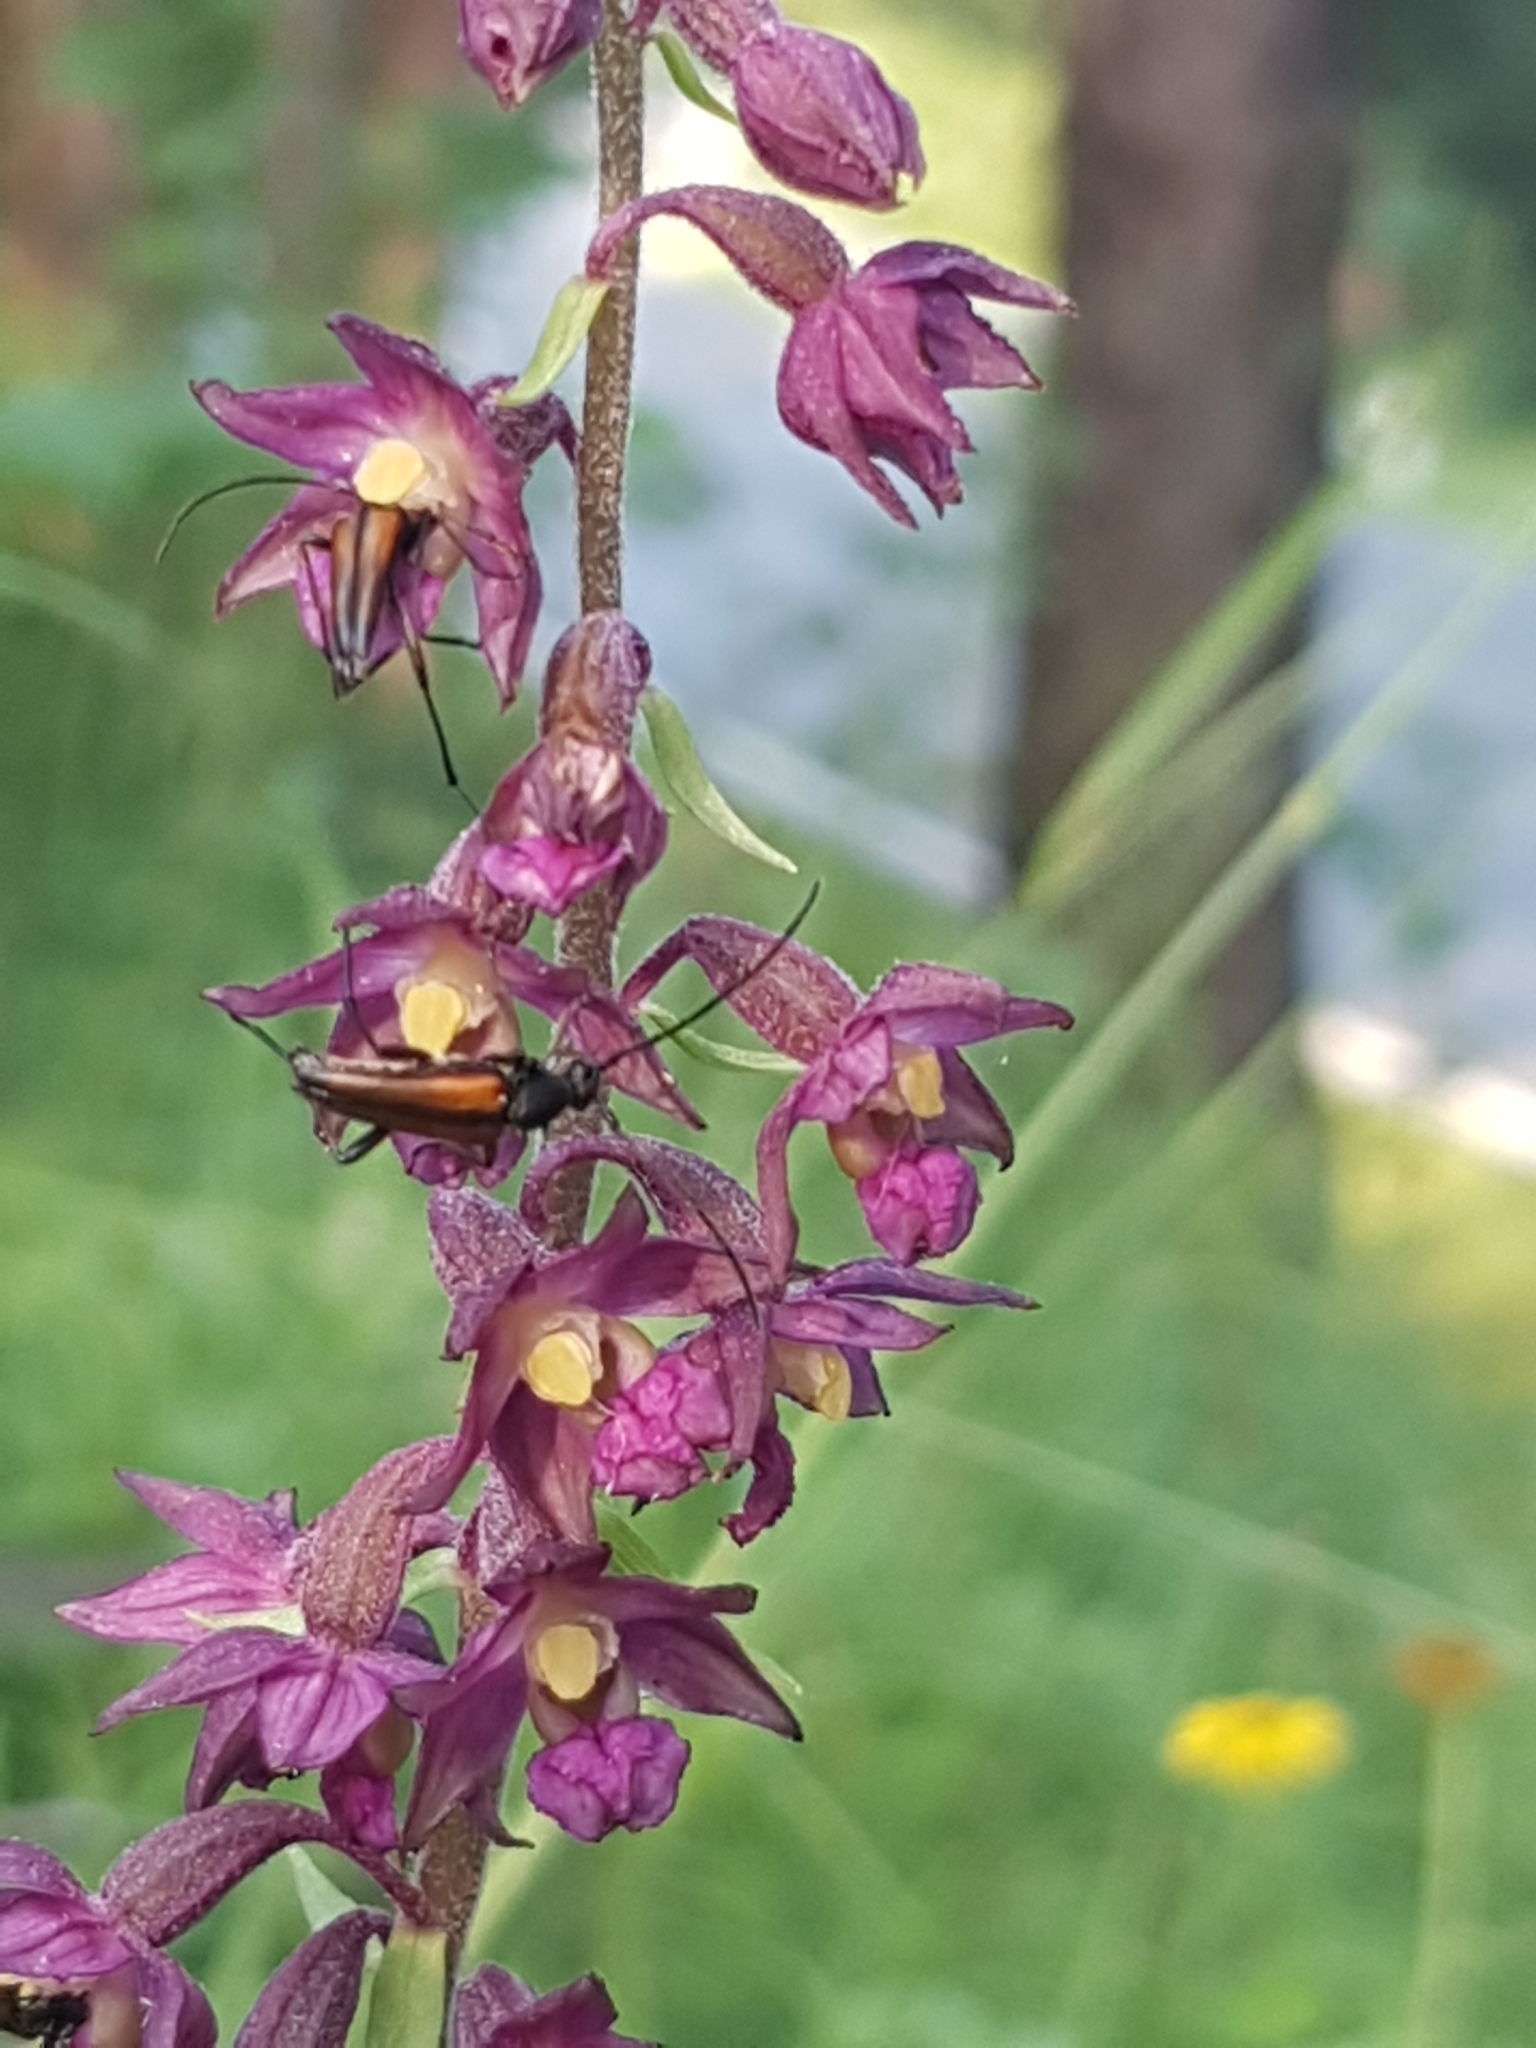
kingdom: Plantae
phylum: Tracheophyta
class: Liliopsida
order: Asparagales
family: Orchidaceae
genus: Epipactis
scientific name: Epipactis atrorubens
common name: Dark-red helleborine
